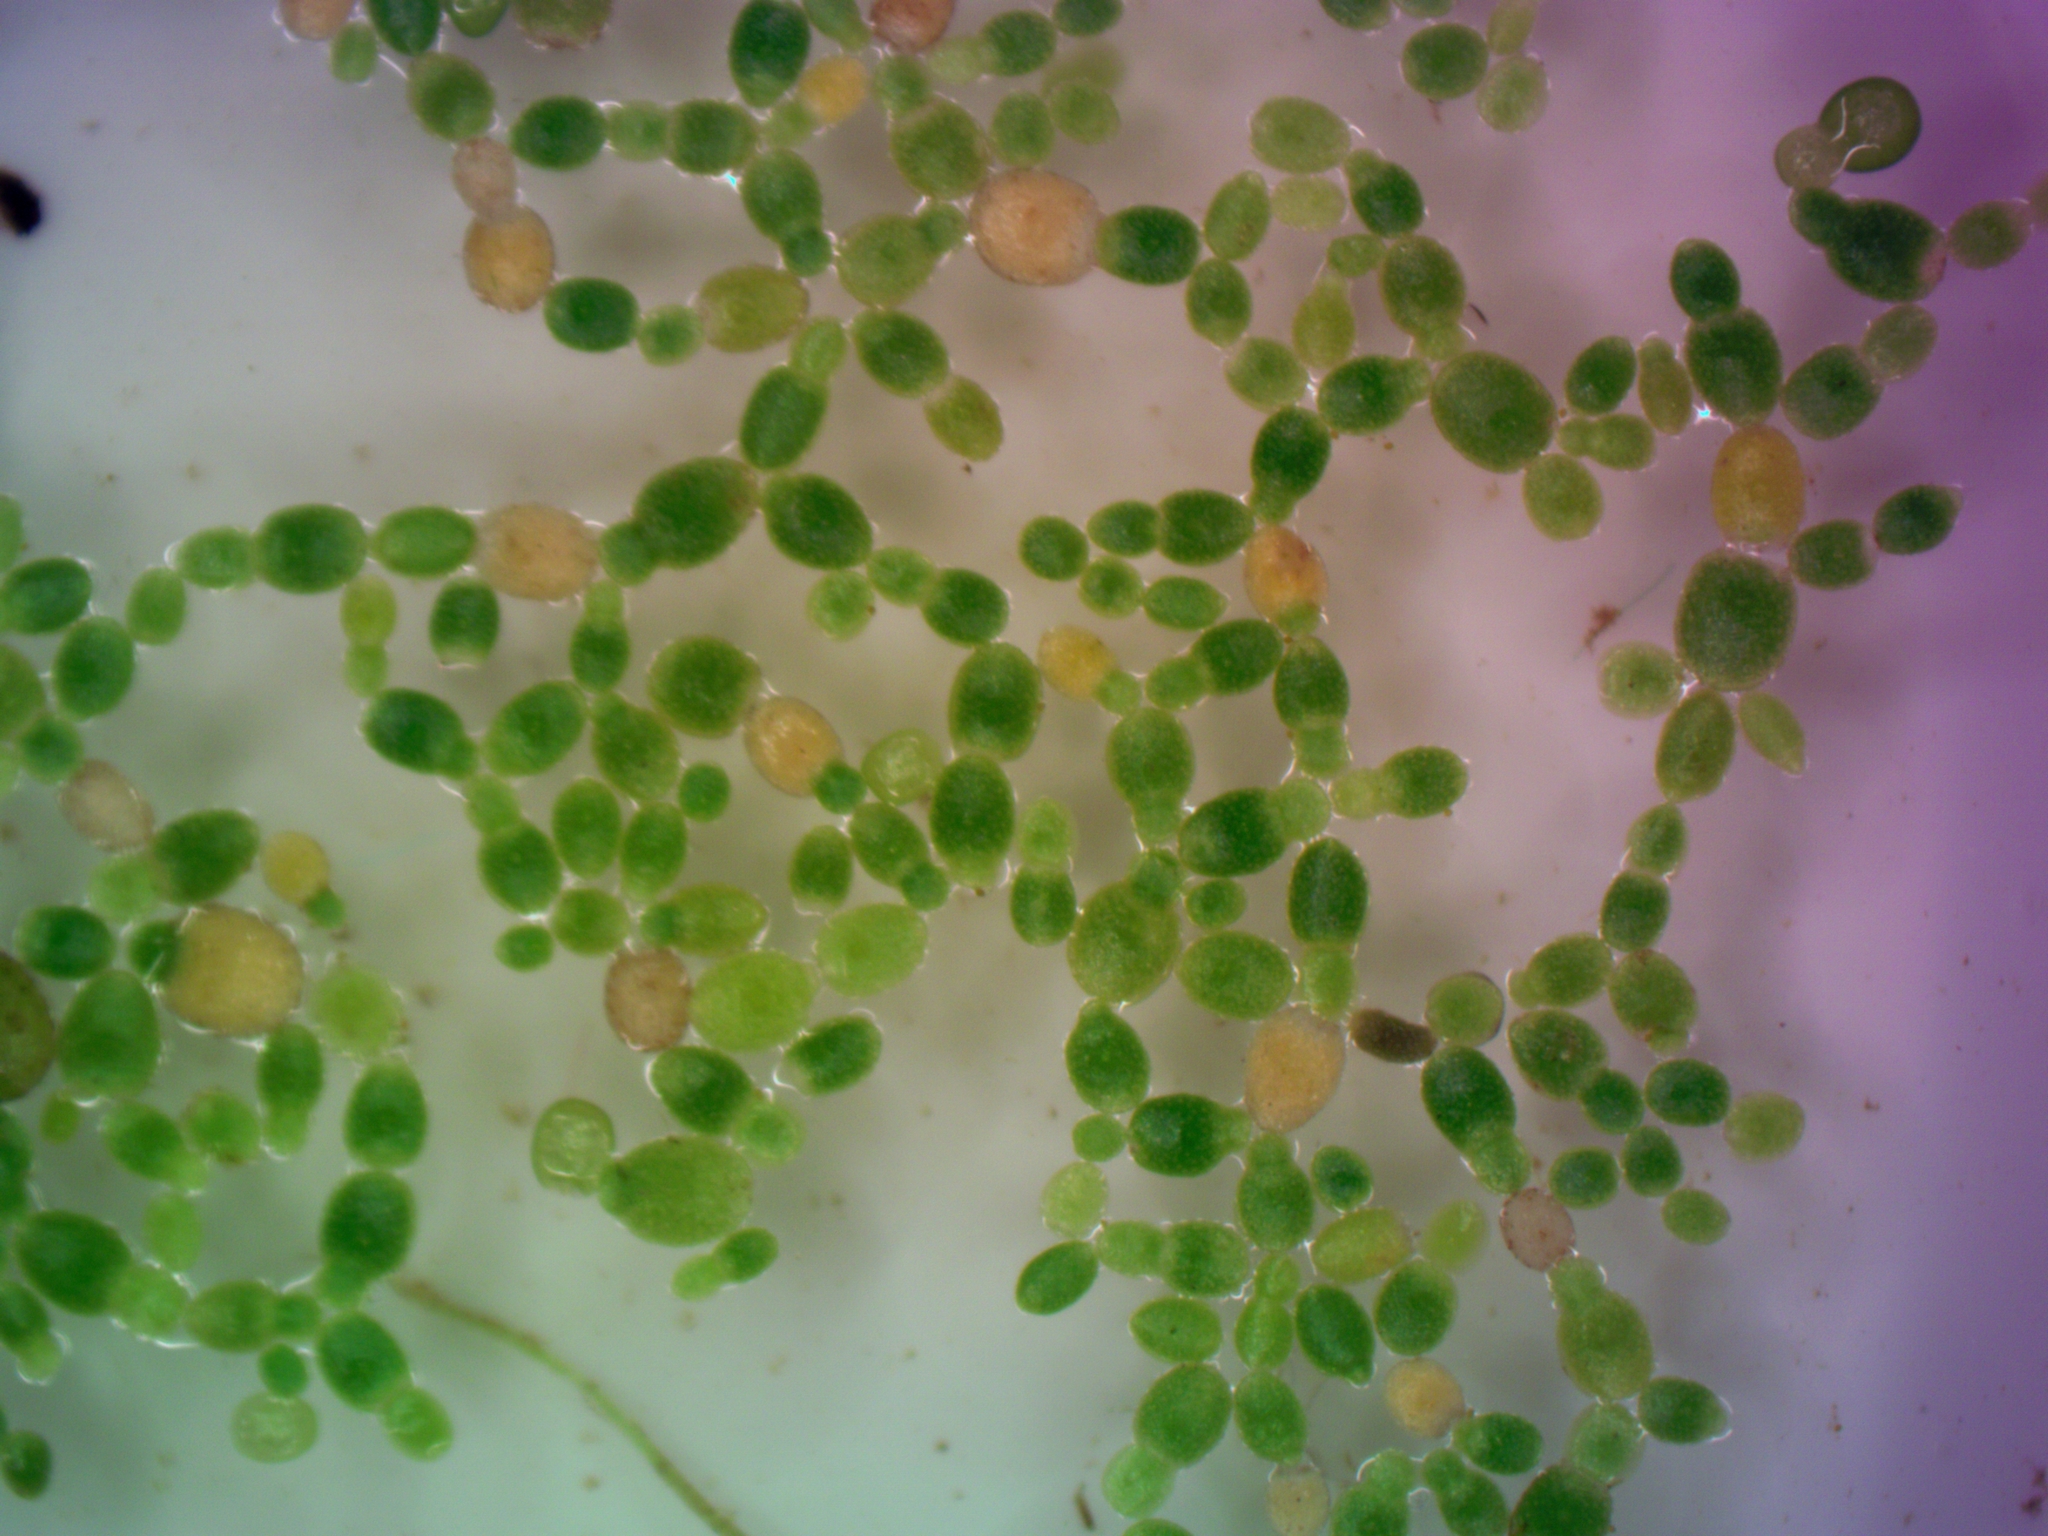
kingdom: Plantae
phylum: Tracheophyta
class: Liliopsida
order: Alismatales
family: Araceae
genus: Wolffia
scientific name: Wolffia columbiana
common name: Columbia watermeal
